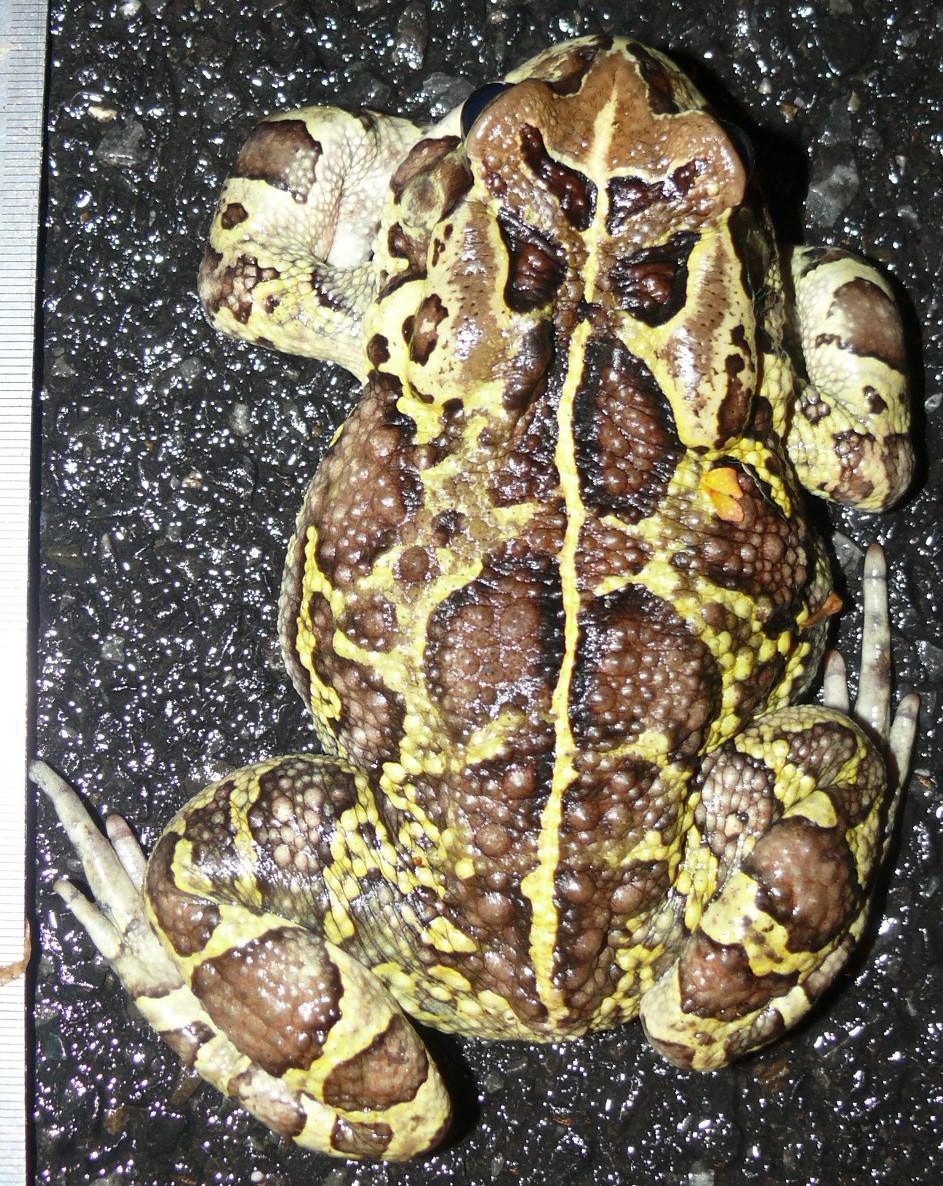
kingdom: Animalia
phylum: Chordata
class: Amphibia
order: Anura
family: Bufonidae
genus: Sclerophrys
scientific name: Sclerophrys pantherina
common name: Panther toad
